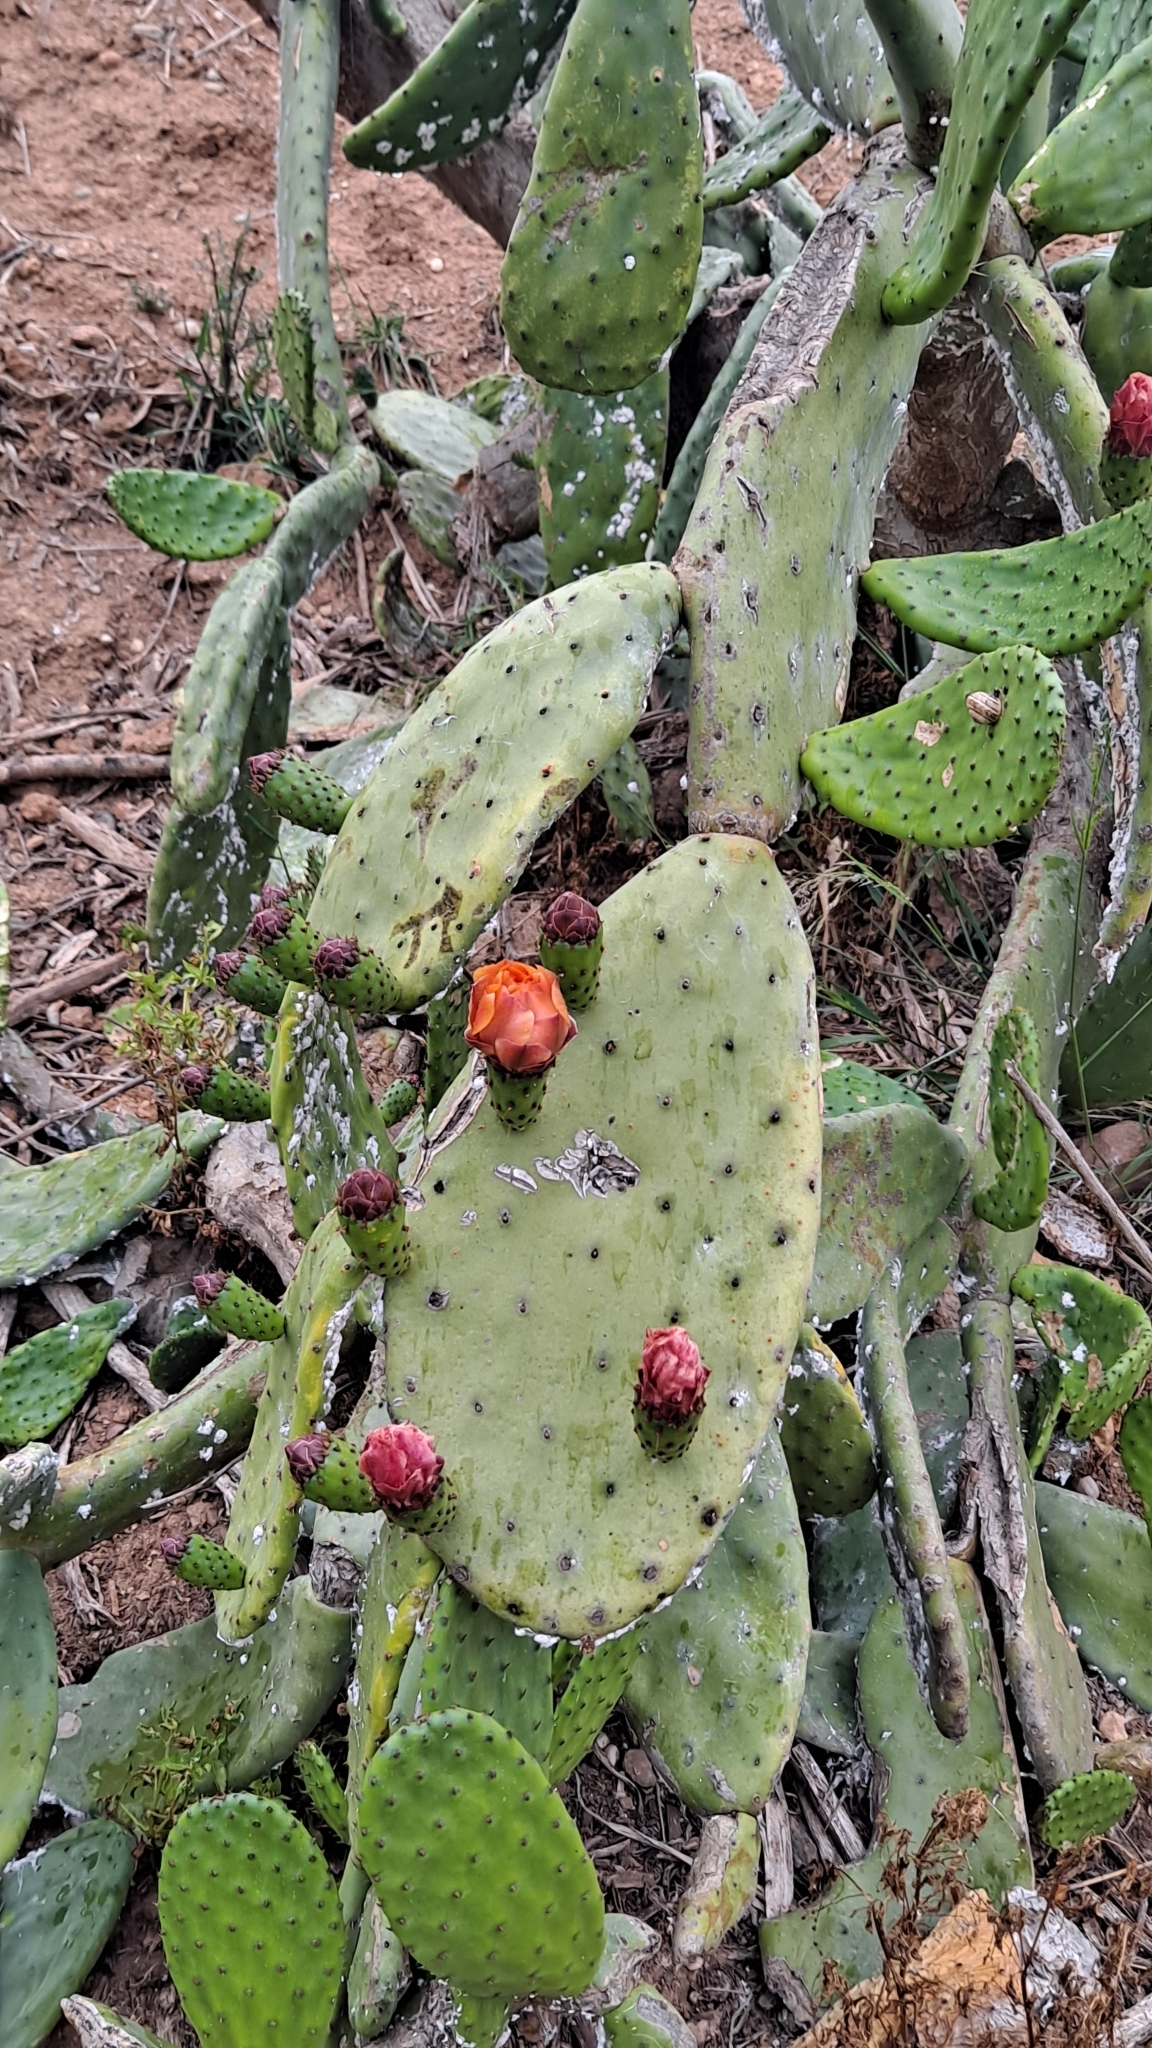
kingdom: Plantae
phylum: Tracheophyta
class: Magnoliopsida
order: Caryophyllales
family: Cactaceae
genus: Opuntia
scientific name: Opuntia tomentosa
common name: Woollyjoint pricklypear
